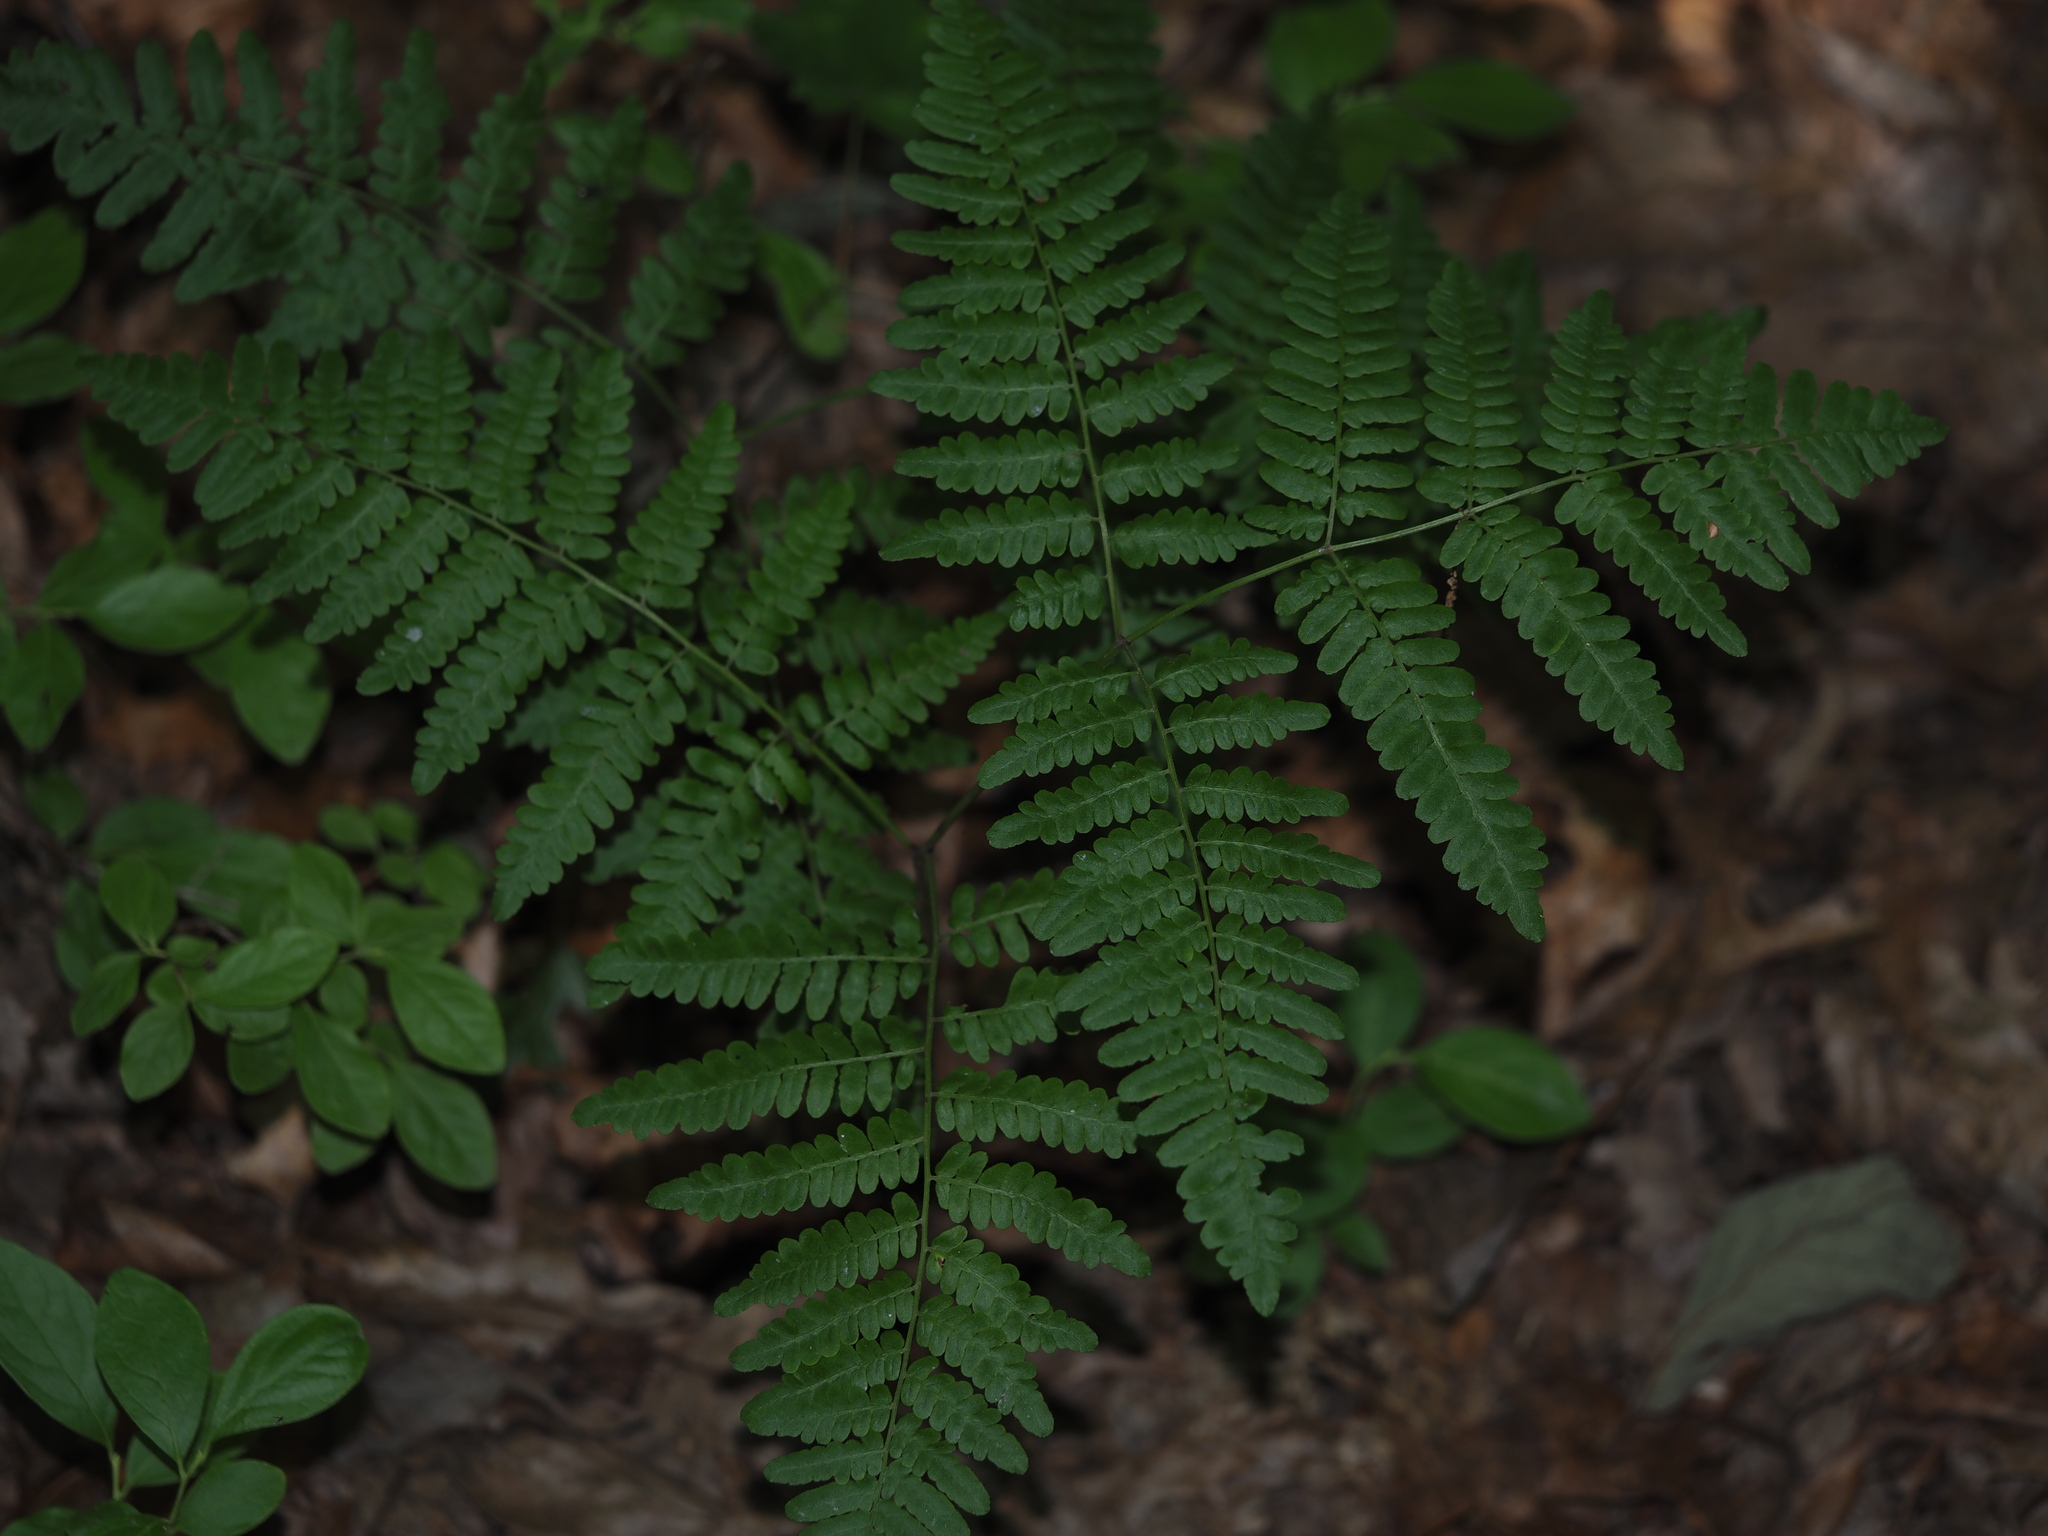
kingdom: Plantae
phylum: Tracheophyta
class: Polypodiopsida
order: Polypodiales
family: Dennstaedtiaceae
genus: Pteridium
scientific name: Pteridium aquilinum
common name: Bracken
